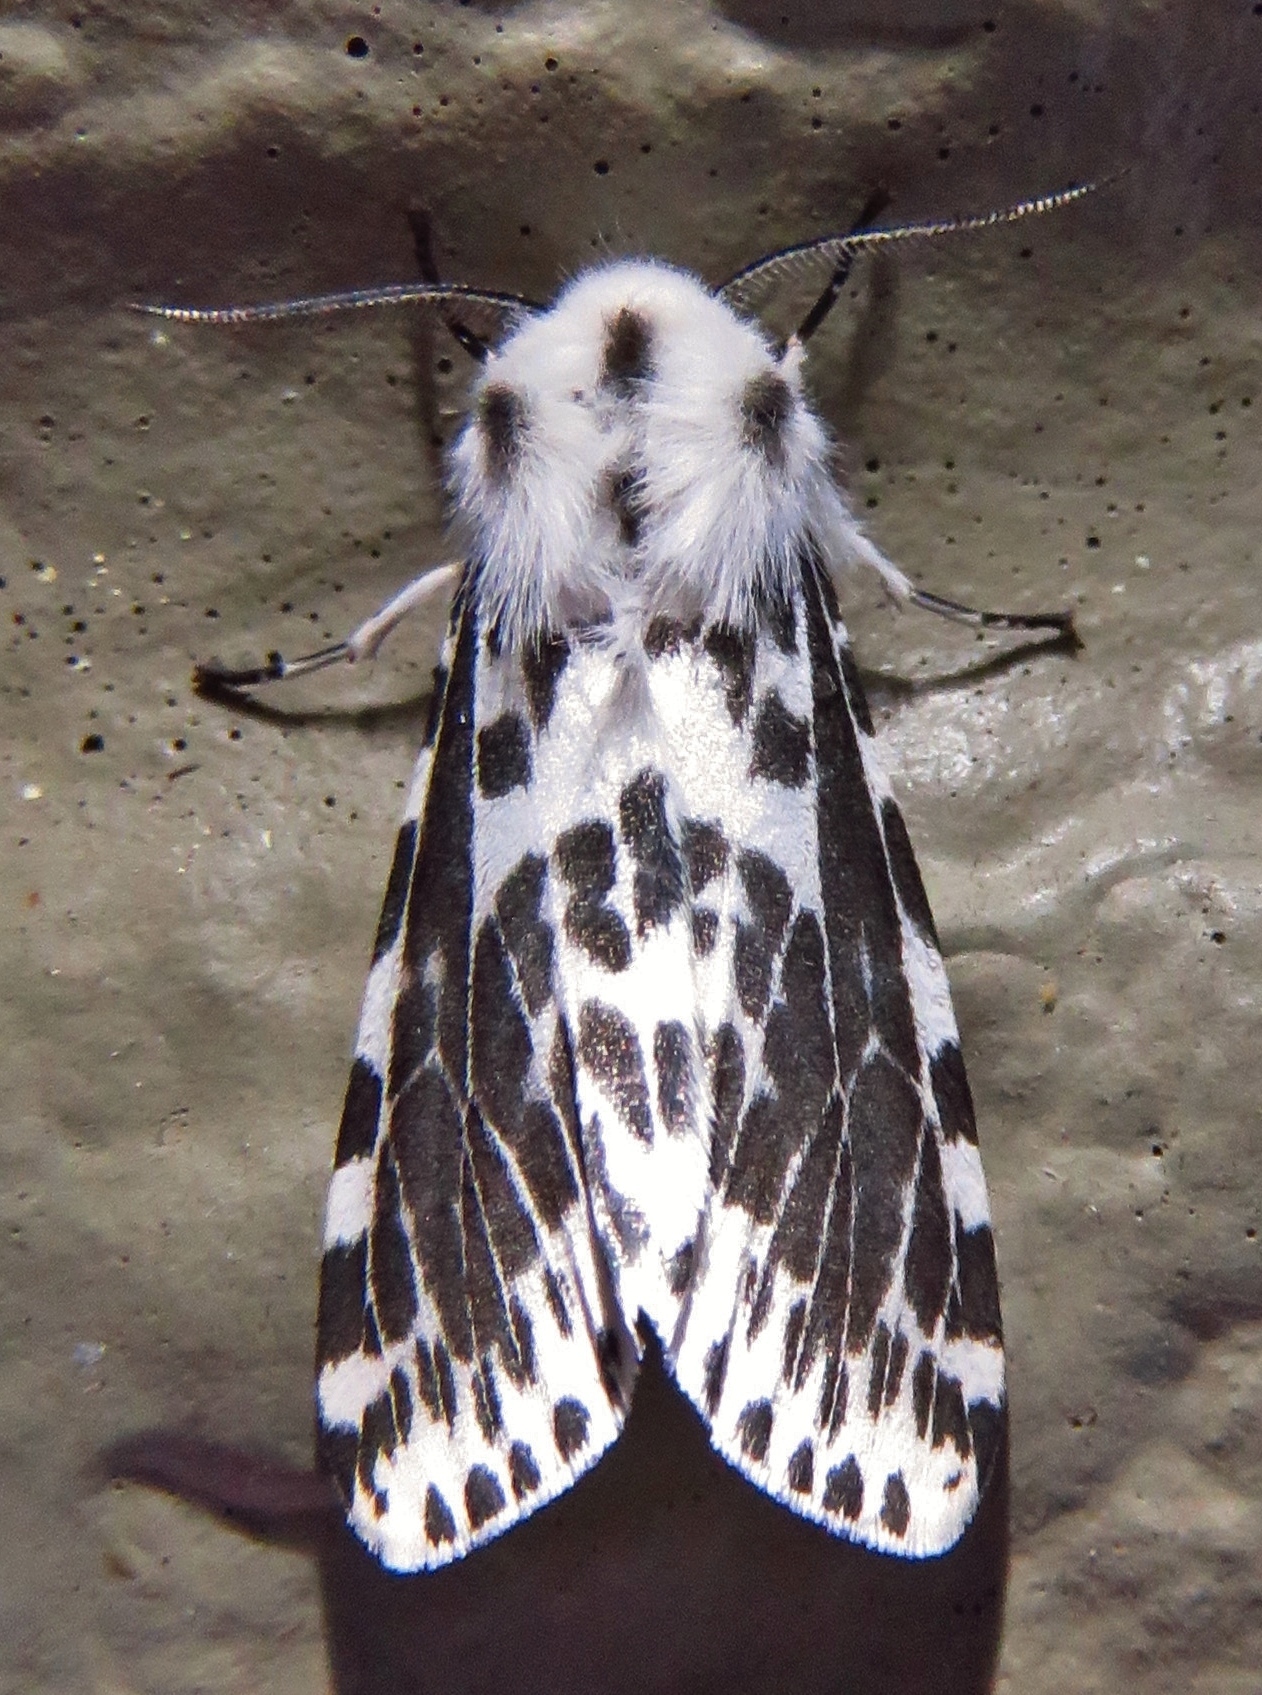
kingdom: Animalia
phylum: Arthropoda
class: Insecta
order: Lepidoptera
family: Erebidae
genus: Hyphantria
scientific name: Hyphantria cunea
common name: American white moth
